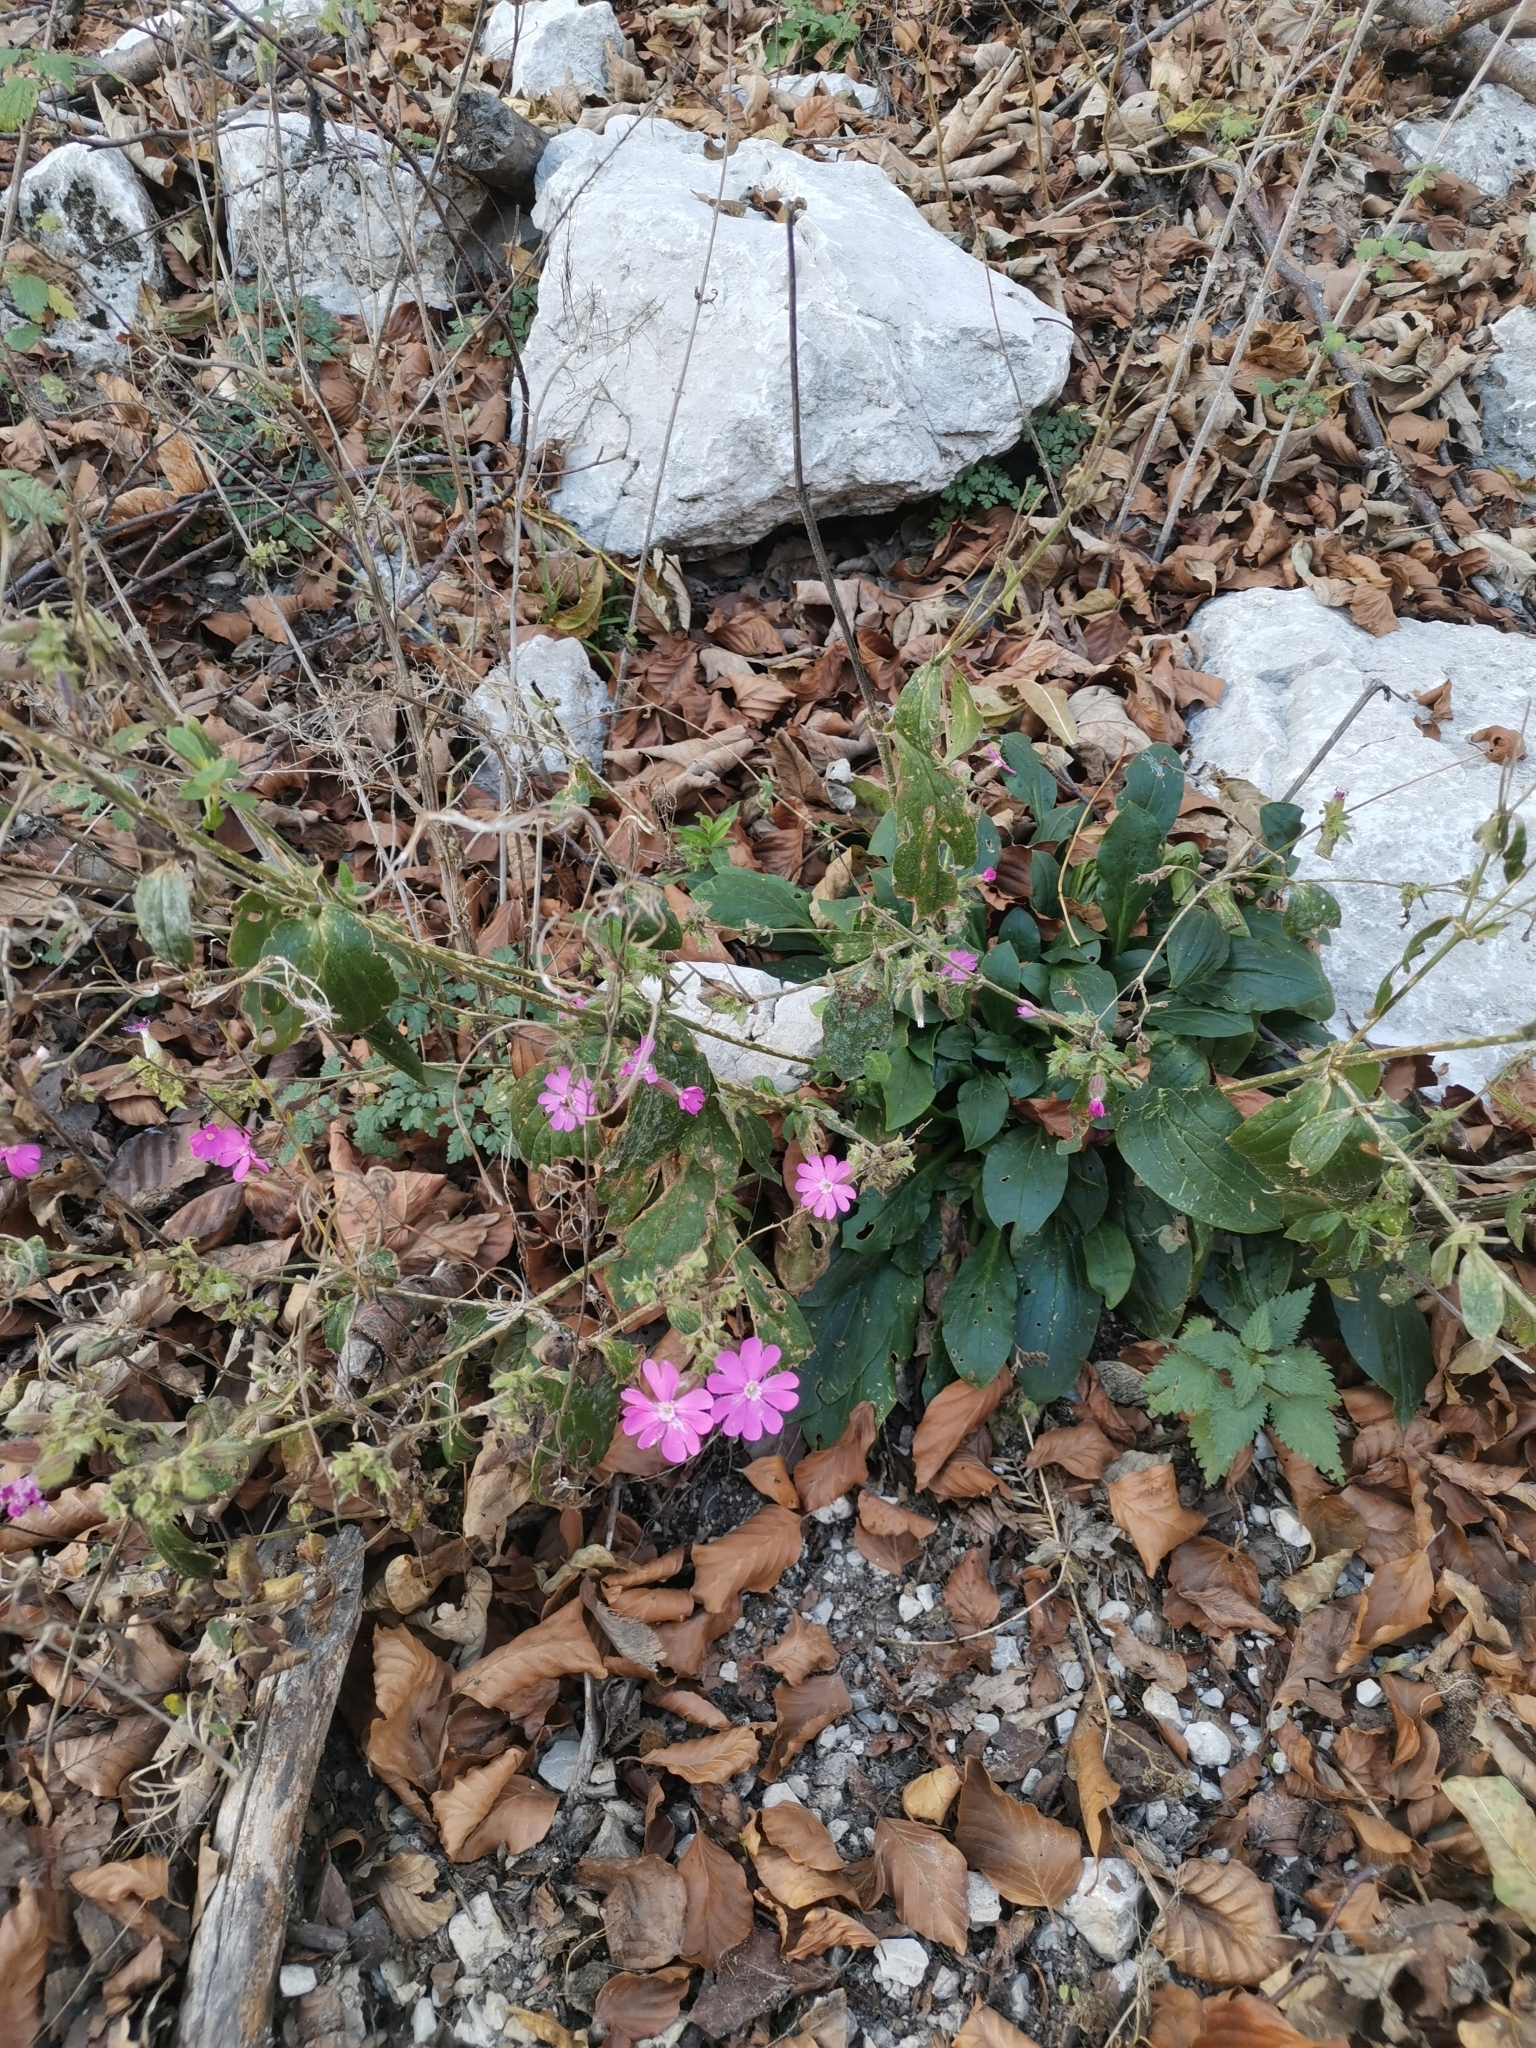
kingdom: Plantae
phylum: Tracheophyta
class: Magnoliopsida
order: Caryophyllales
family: Caryophyllaceae
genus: Silene
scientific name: Silene dioica
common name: Red campion
